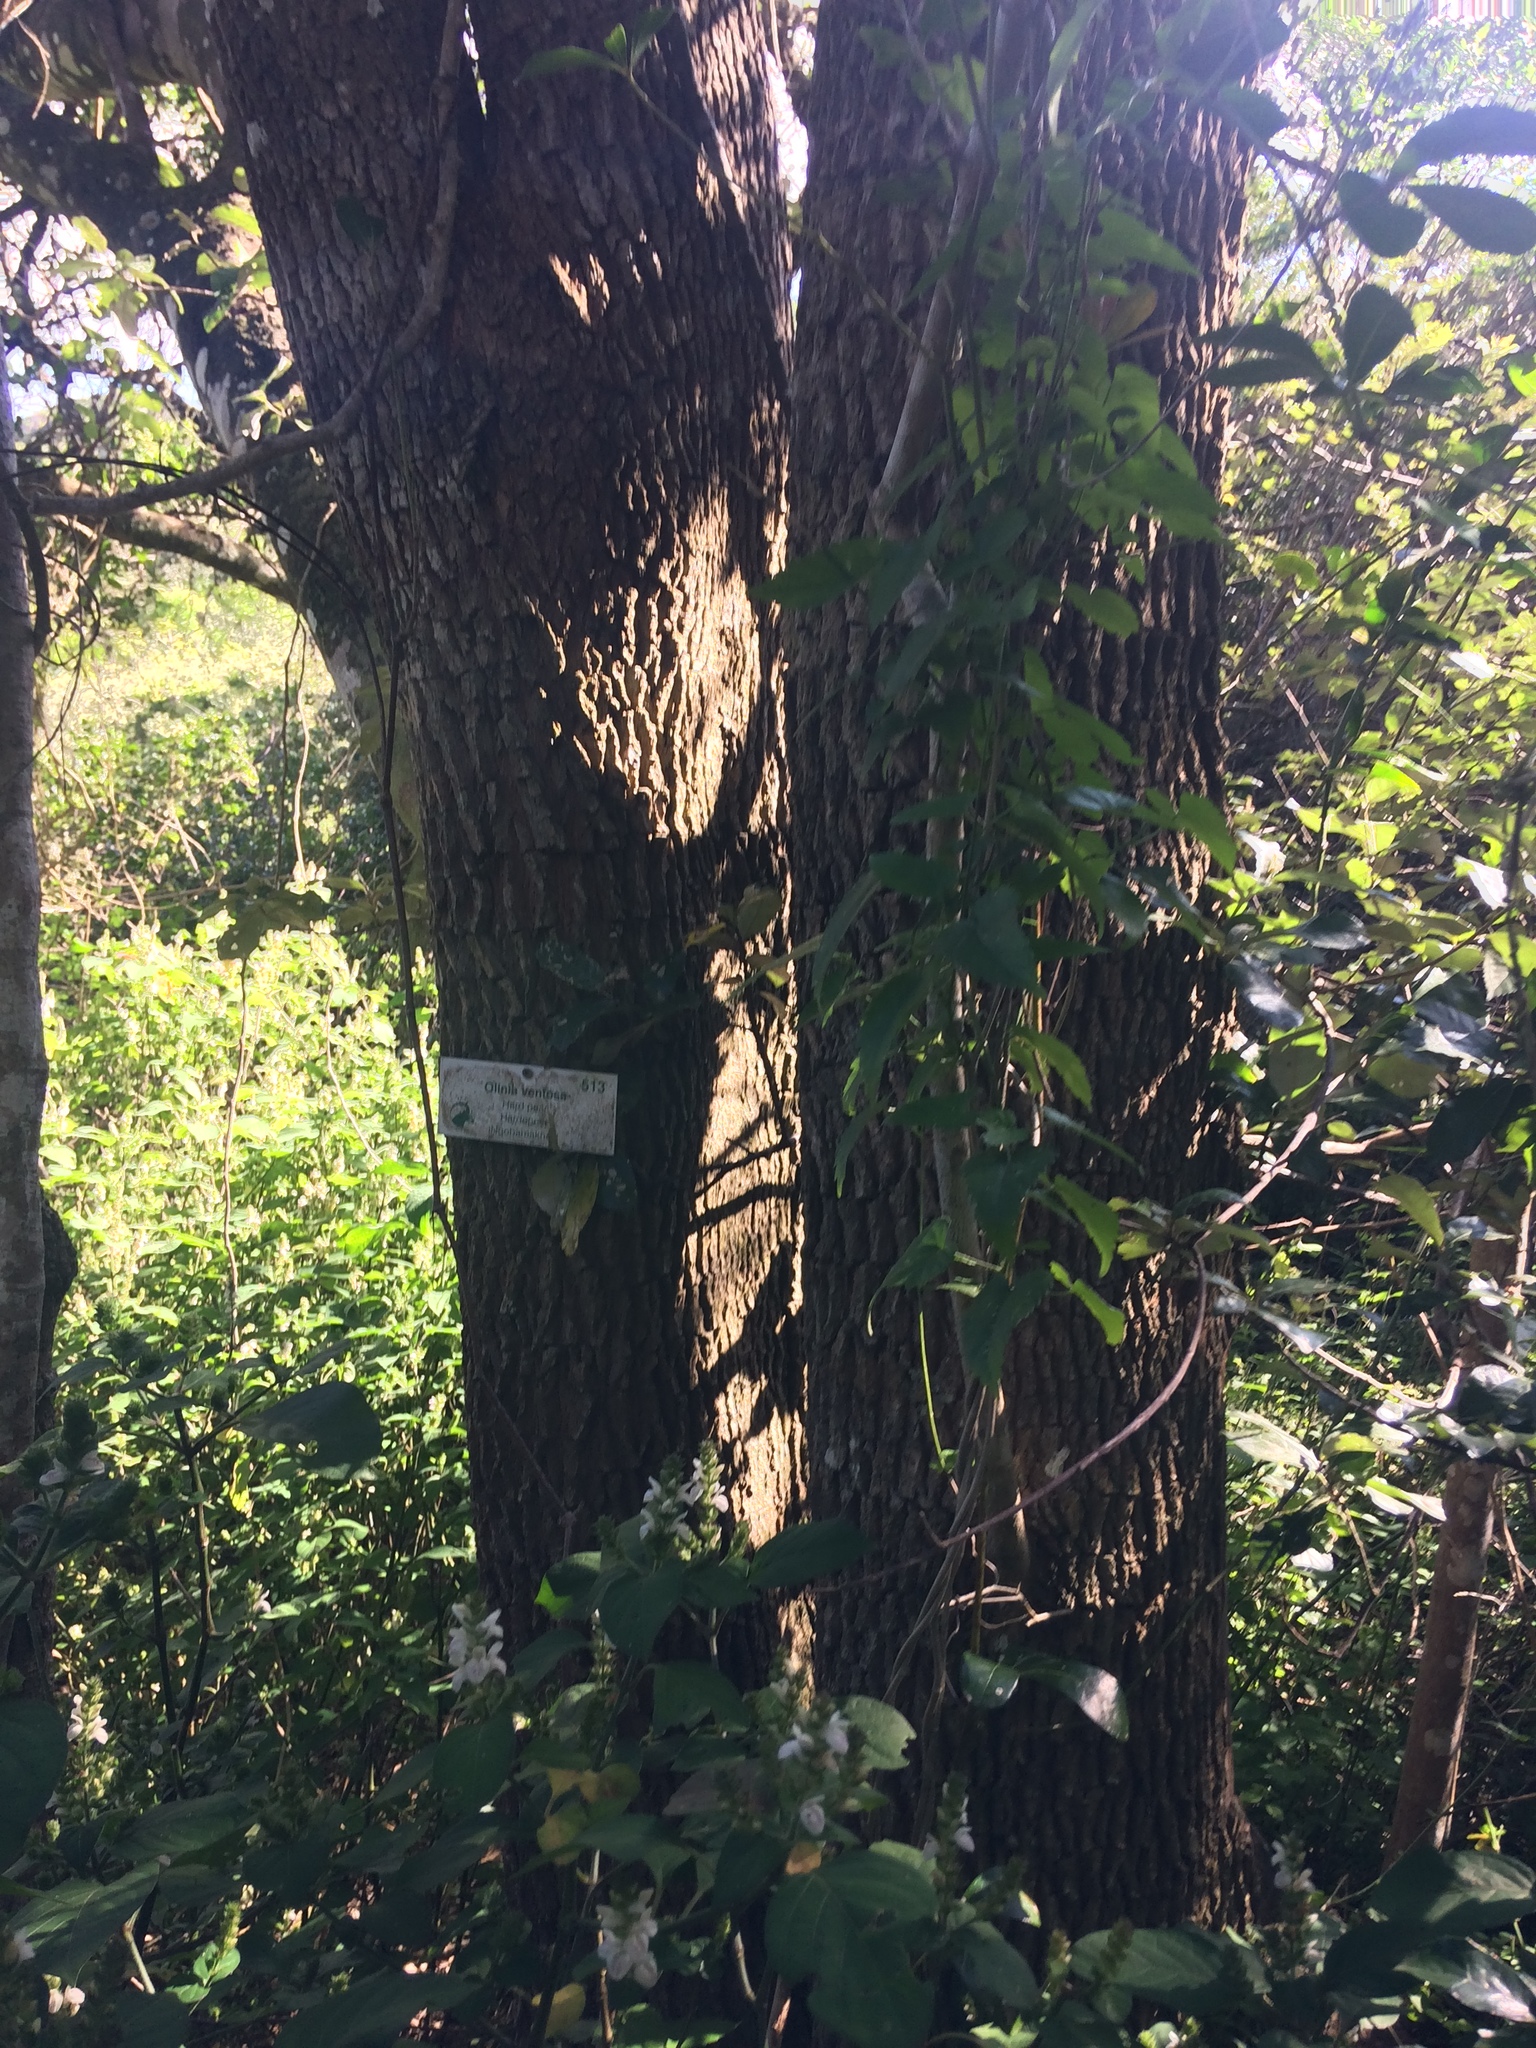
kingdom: Plantae
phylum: Tracheophyta
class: Magnoliopsida
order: Myrtales
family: Penaeaceae
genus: Olinia
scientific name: Olinia ventosa
